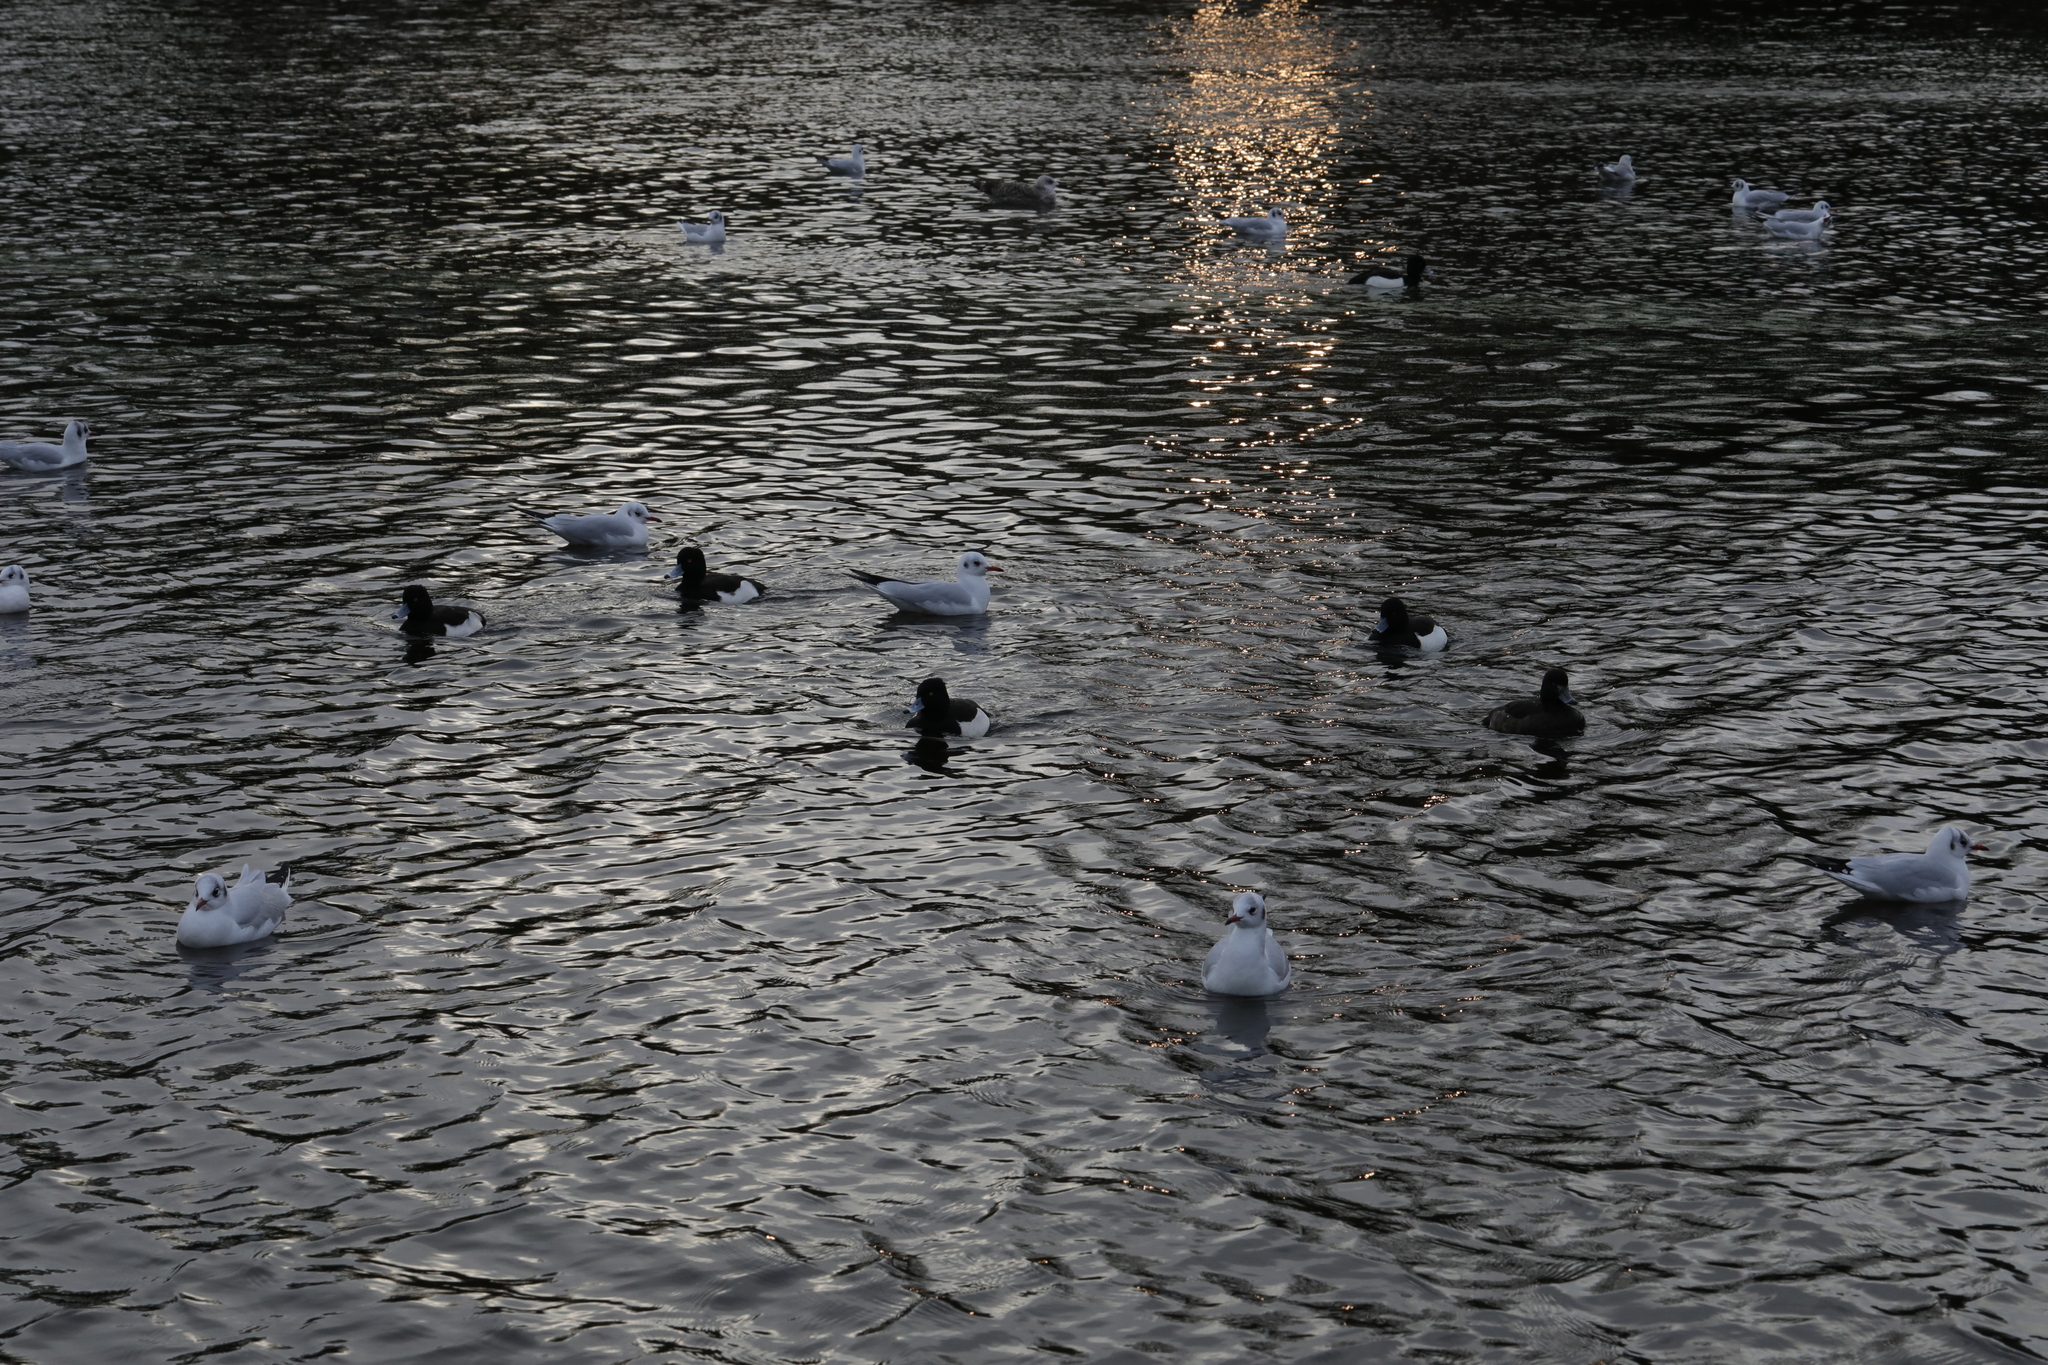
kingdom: Animalia
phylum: Chordata
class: Aves
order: Anseriformes
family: Anatidae
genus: Aythya
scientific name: Aythya fuligula
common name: Tufted duck
